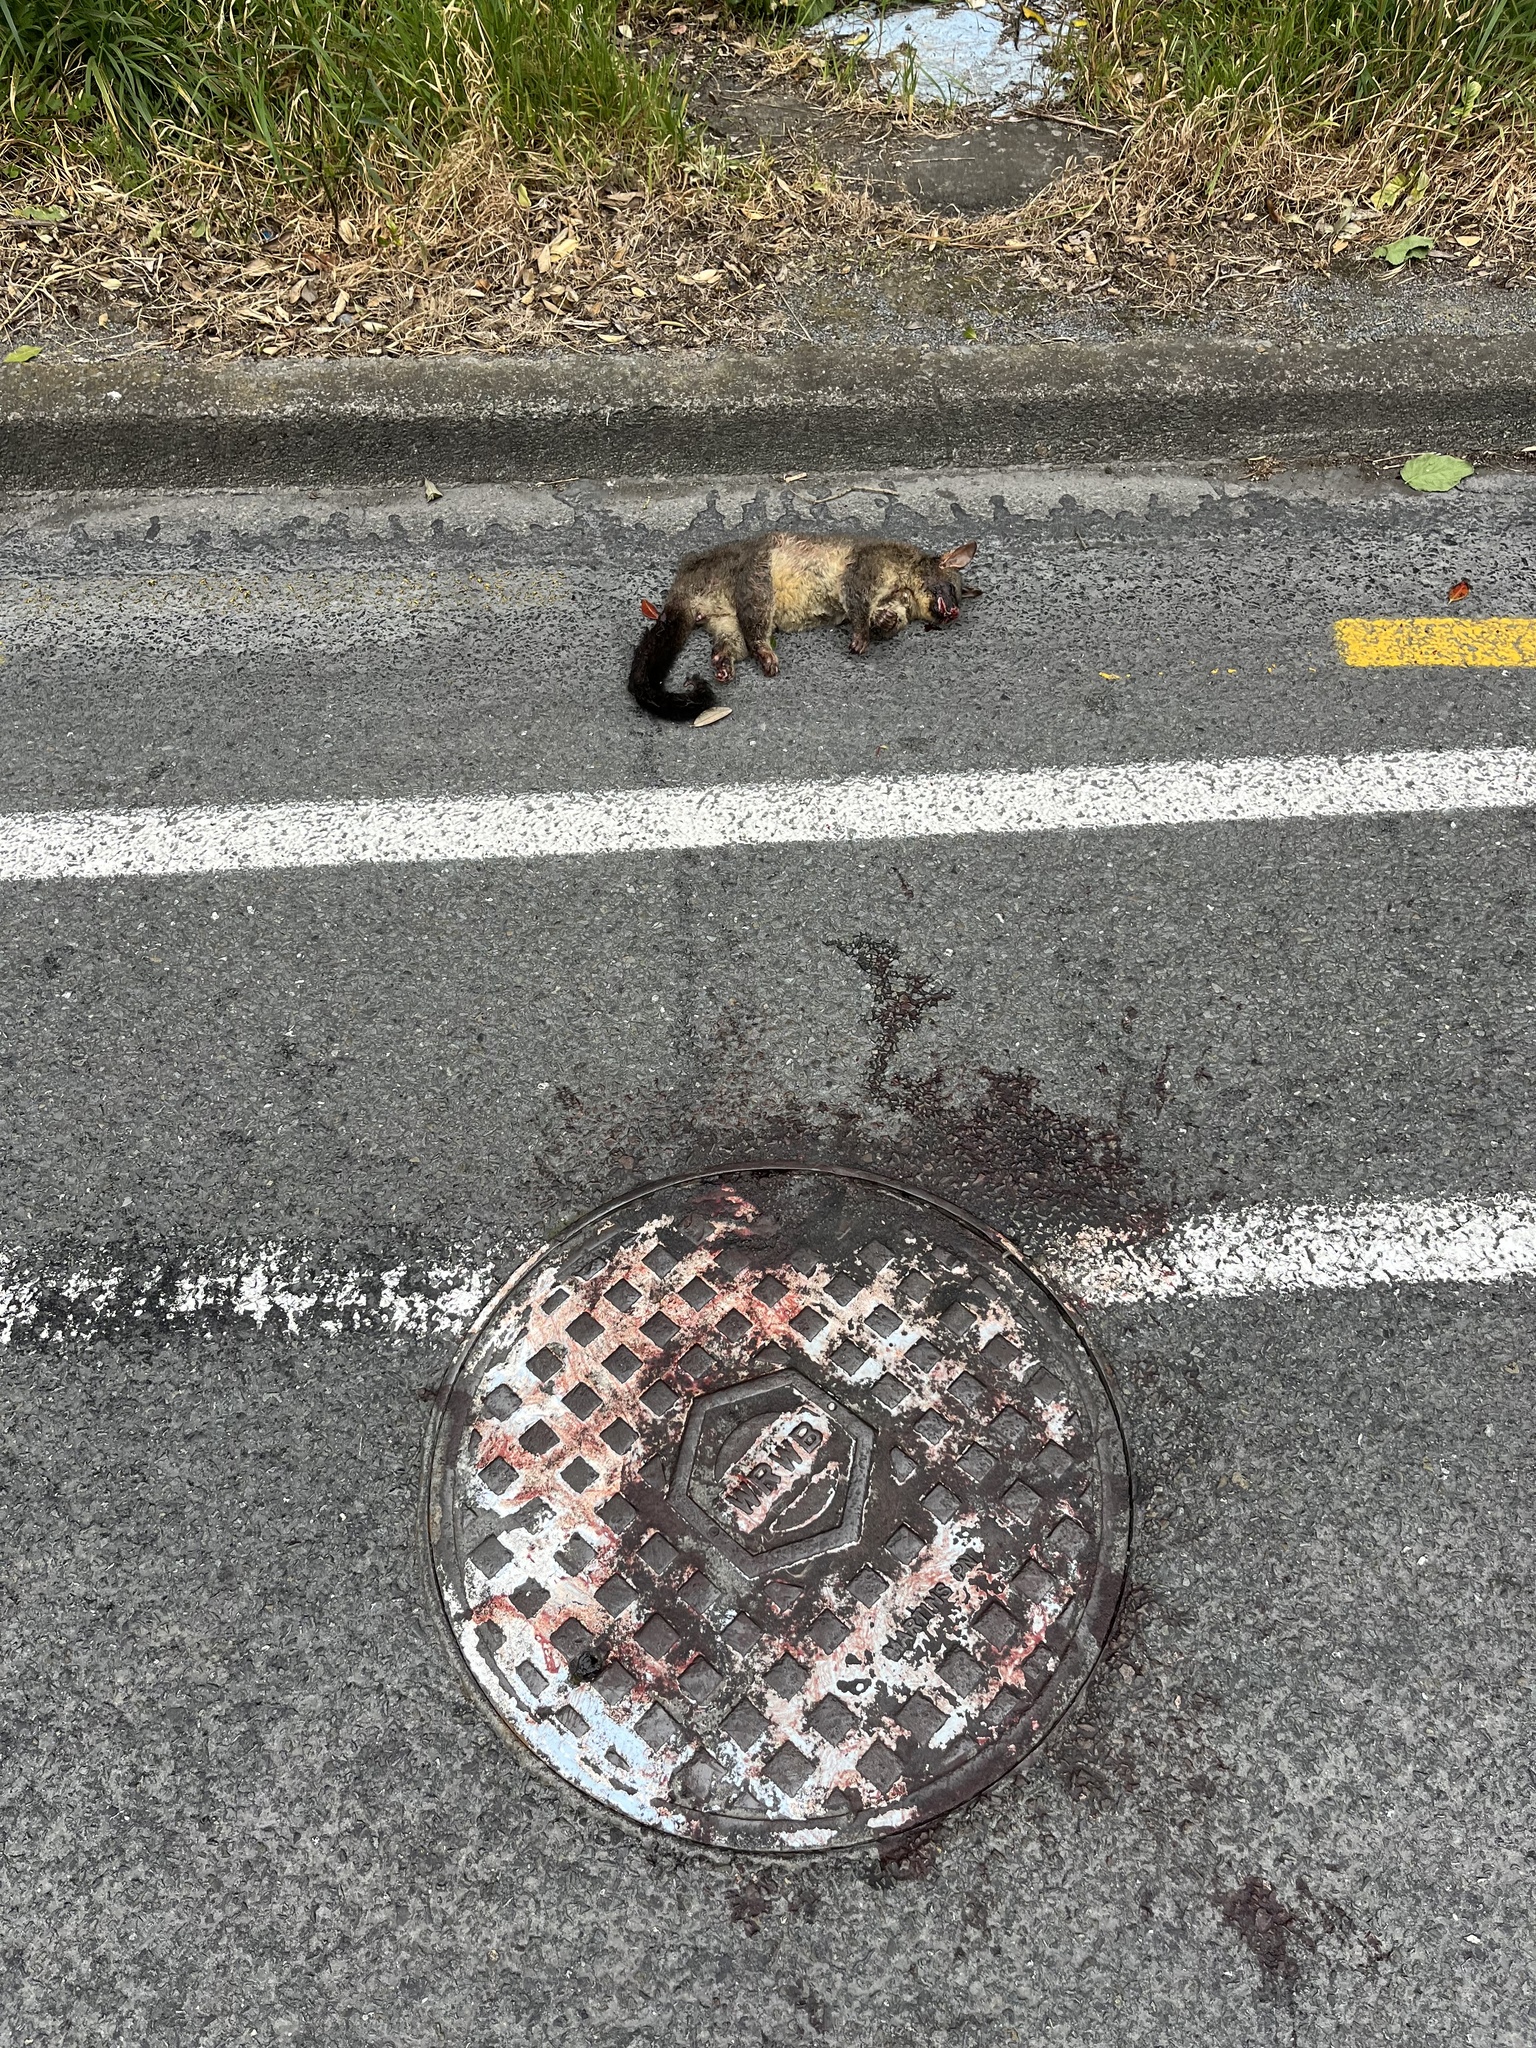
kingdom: Animalia
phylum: Chordata
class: Mammalia
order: Diprotodontia
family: Phalangeridae
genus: Trichosurus
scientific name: Trichosurus vulpecula
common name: Common brushtail
